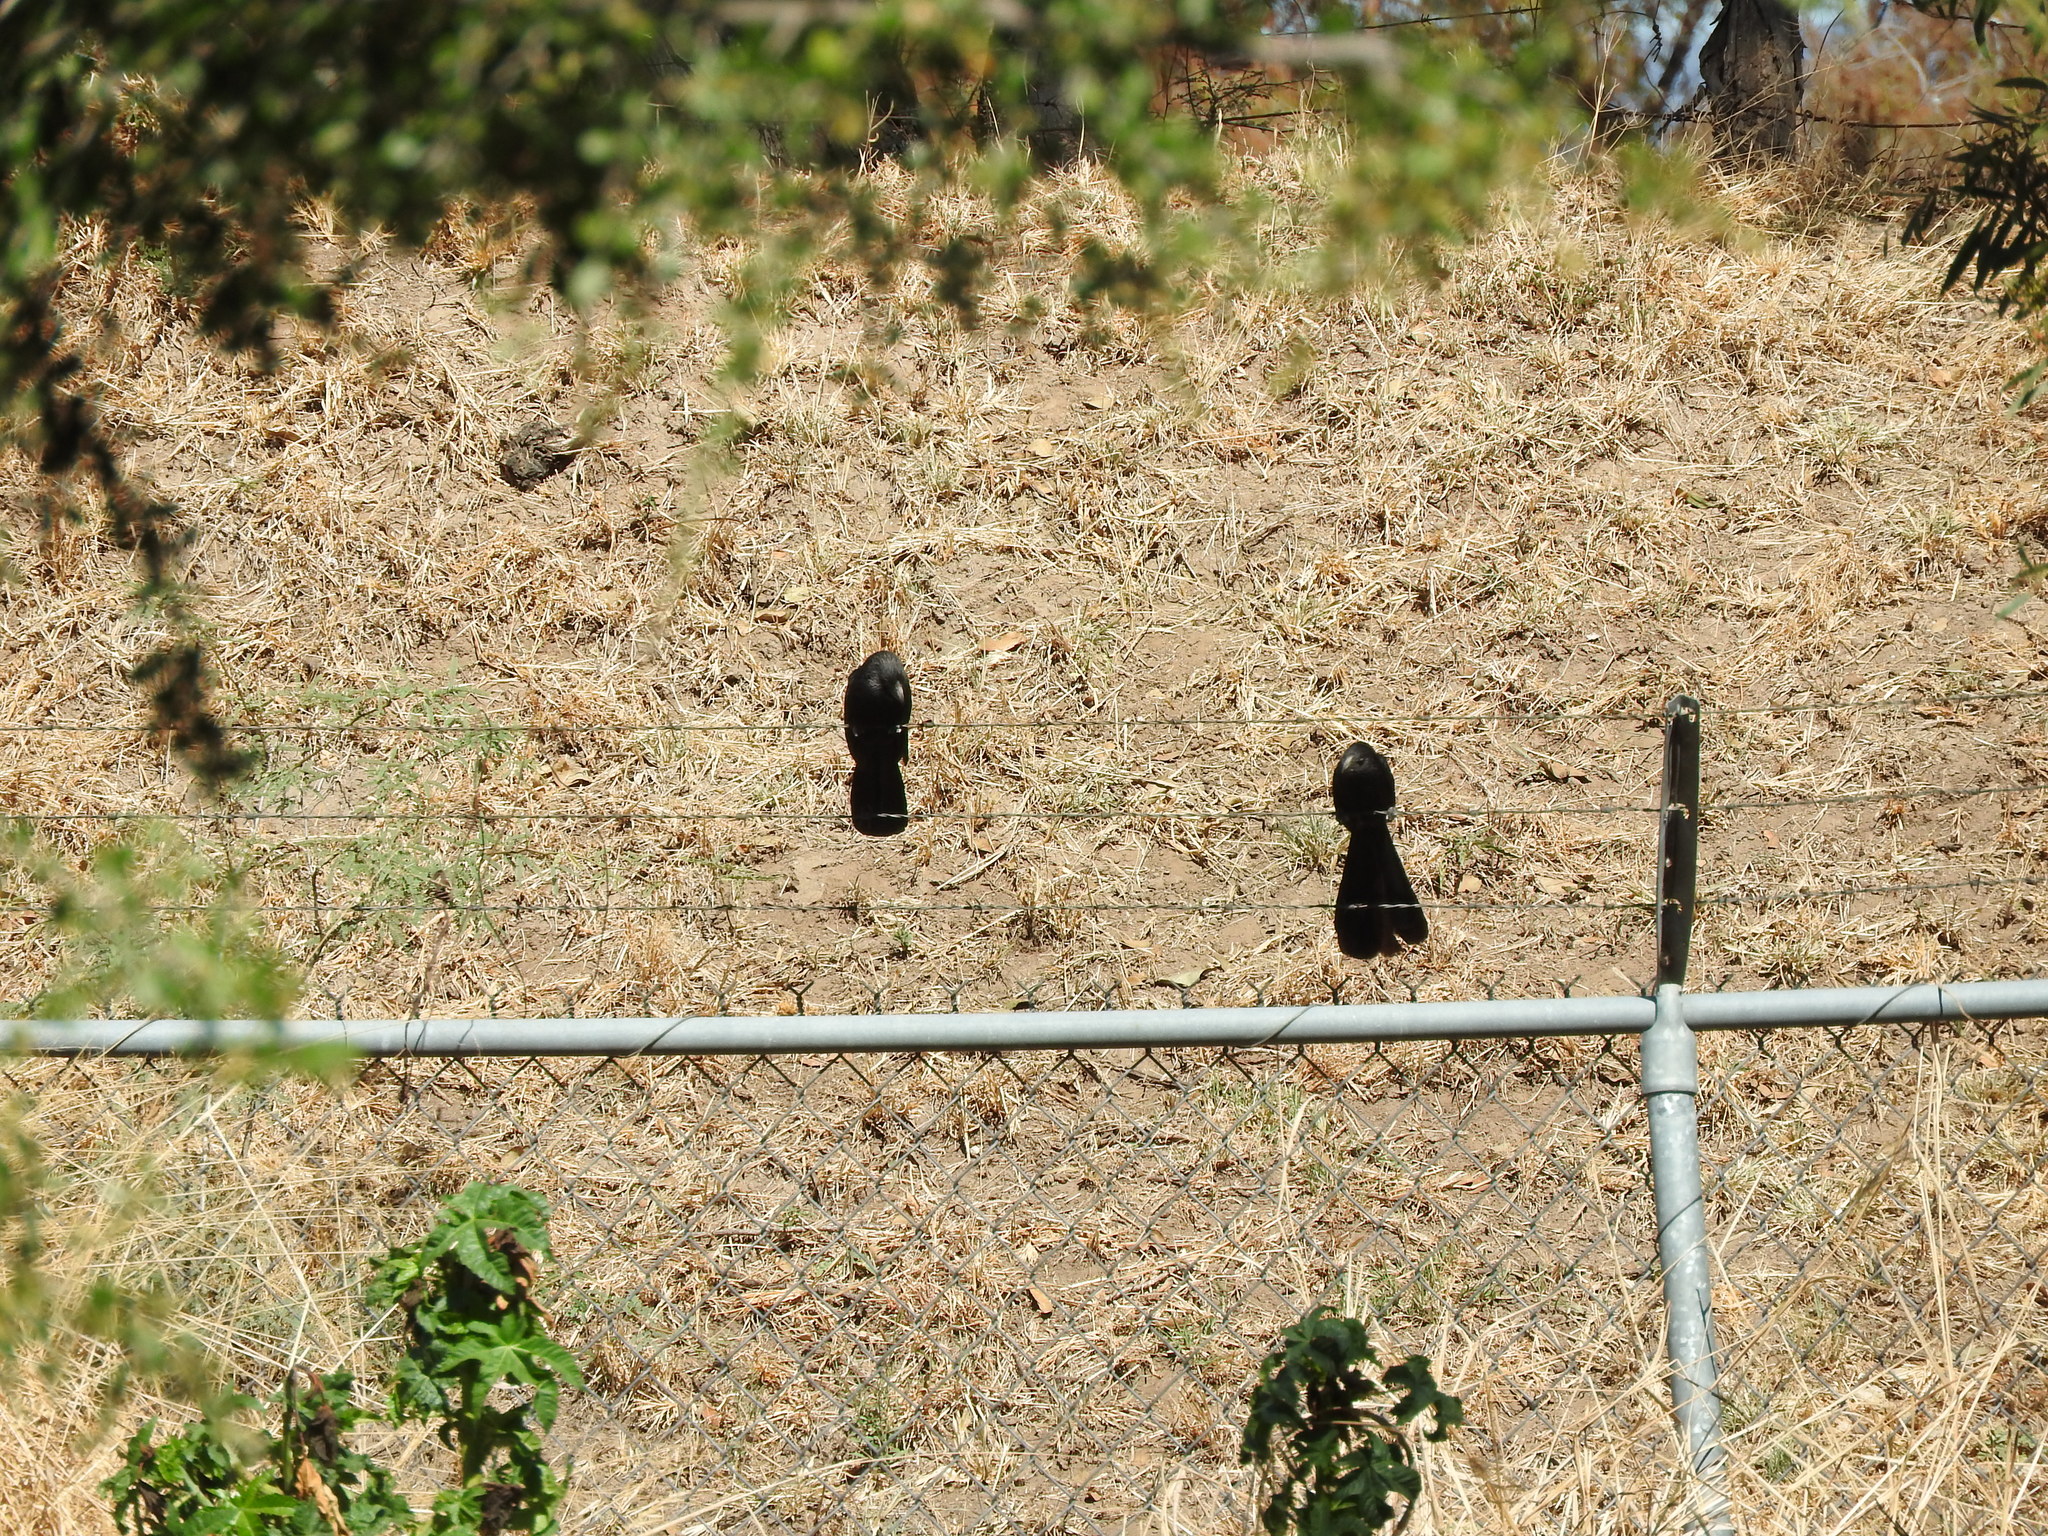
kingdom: Animalia
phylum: Chordata
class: Aves
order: Cuculiformes
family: Cuculidae
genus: Crotophaga
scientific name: Crotophaga sulcirostris
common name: Groove-billed ani
